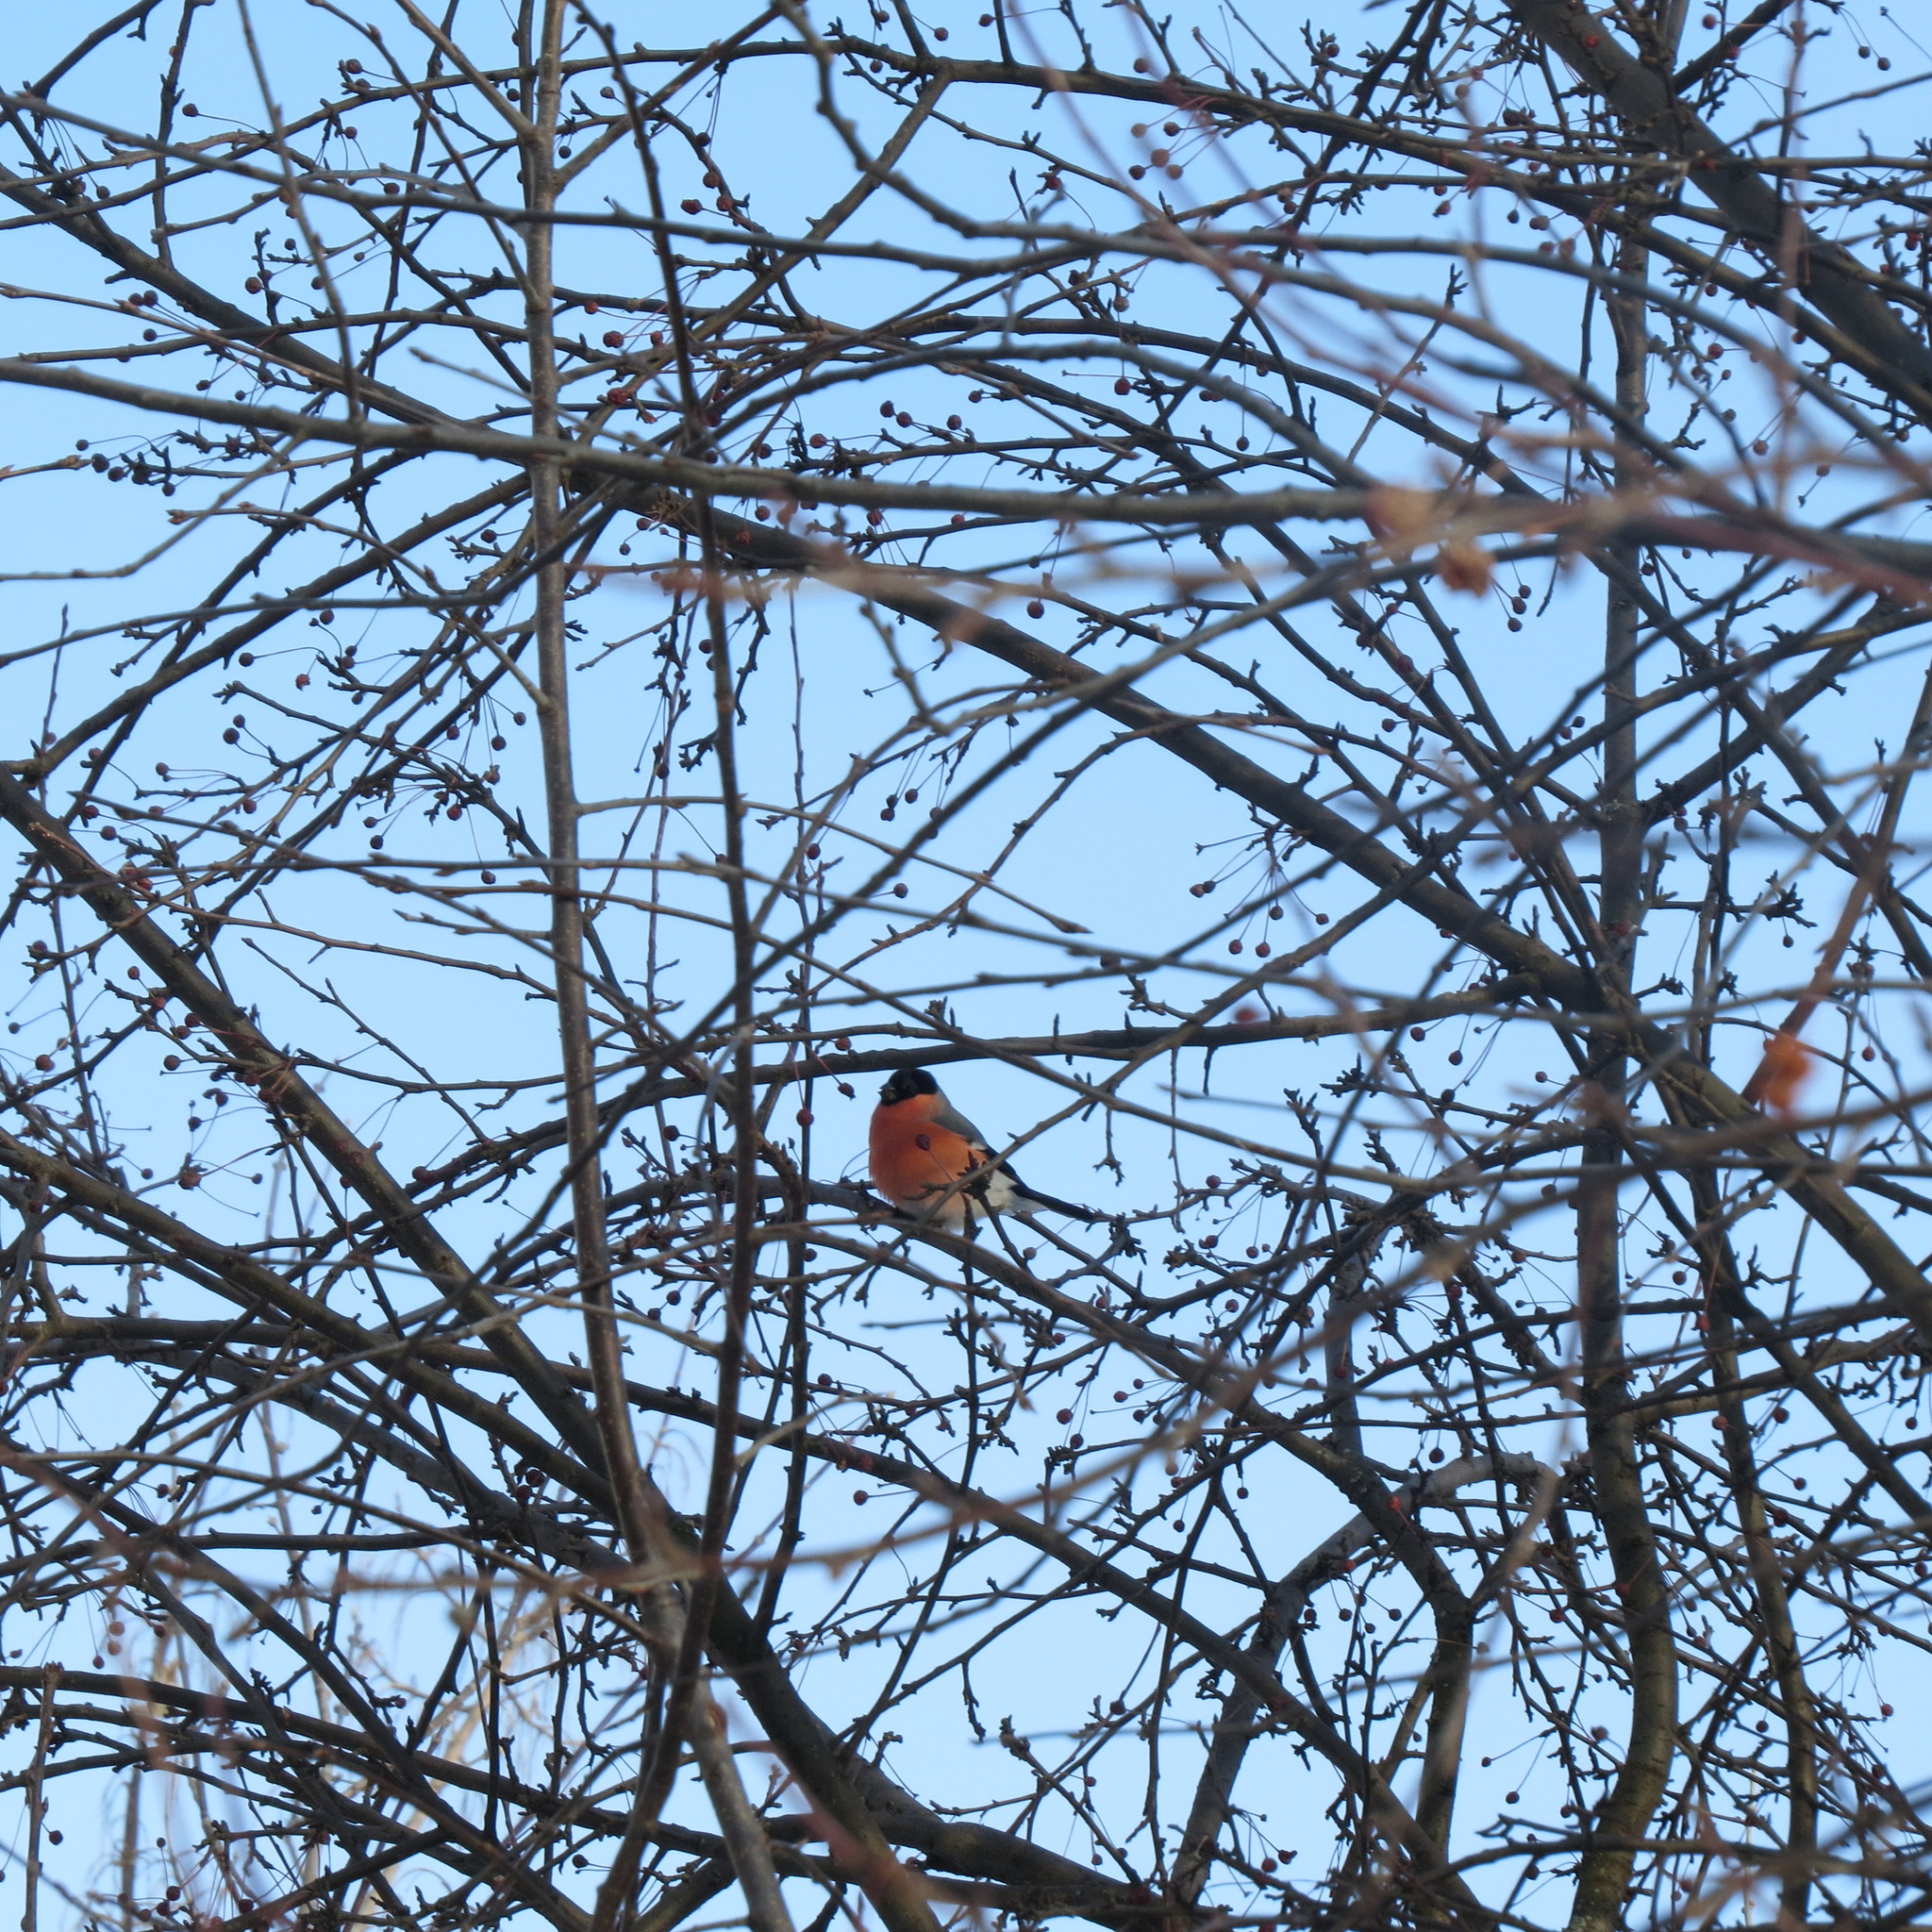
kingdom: Animalia
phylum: Chordata
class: Aves
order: Passeriformes
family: Fringillidae
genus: Pyrrhula
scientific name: Pyrrhula pyrrhula
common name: Eurasian bullfinch
